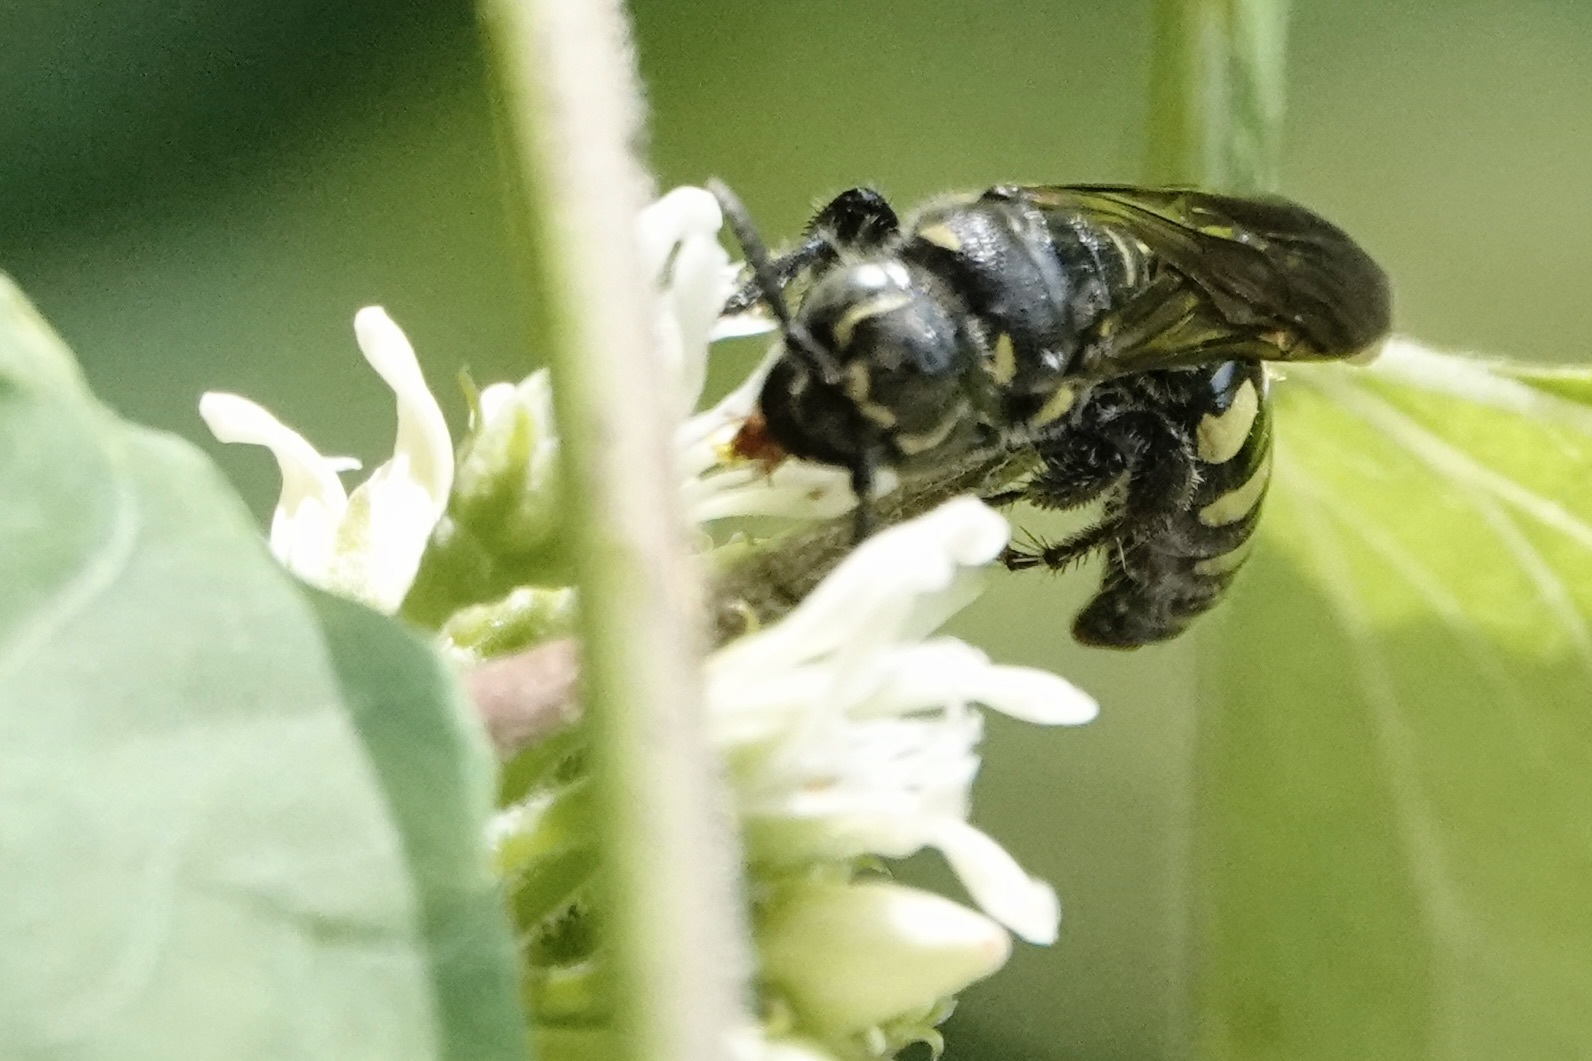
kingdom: Animalia
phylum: Arthropoda
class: Insecta
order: Hymenoptera
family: Tiphiidae
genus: Myzinum
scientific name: Myzinum obscurum
